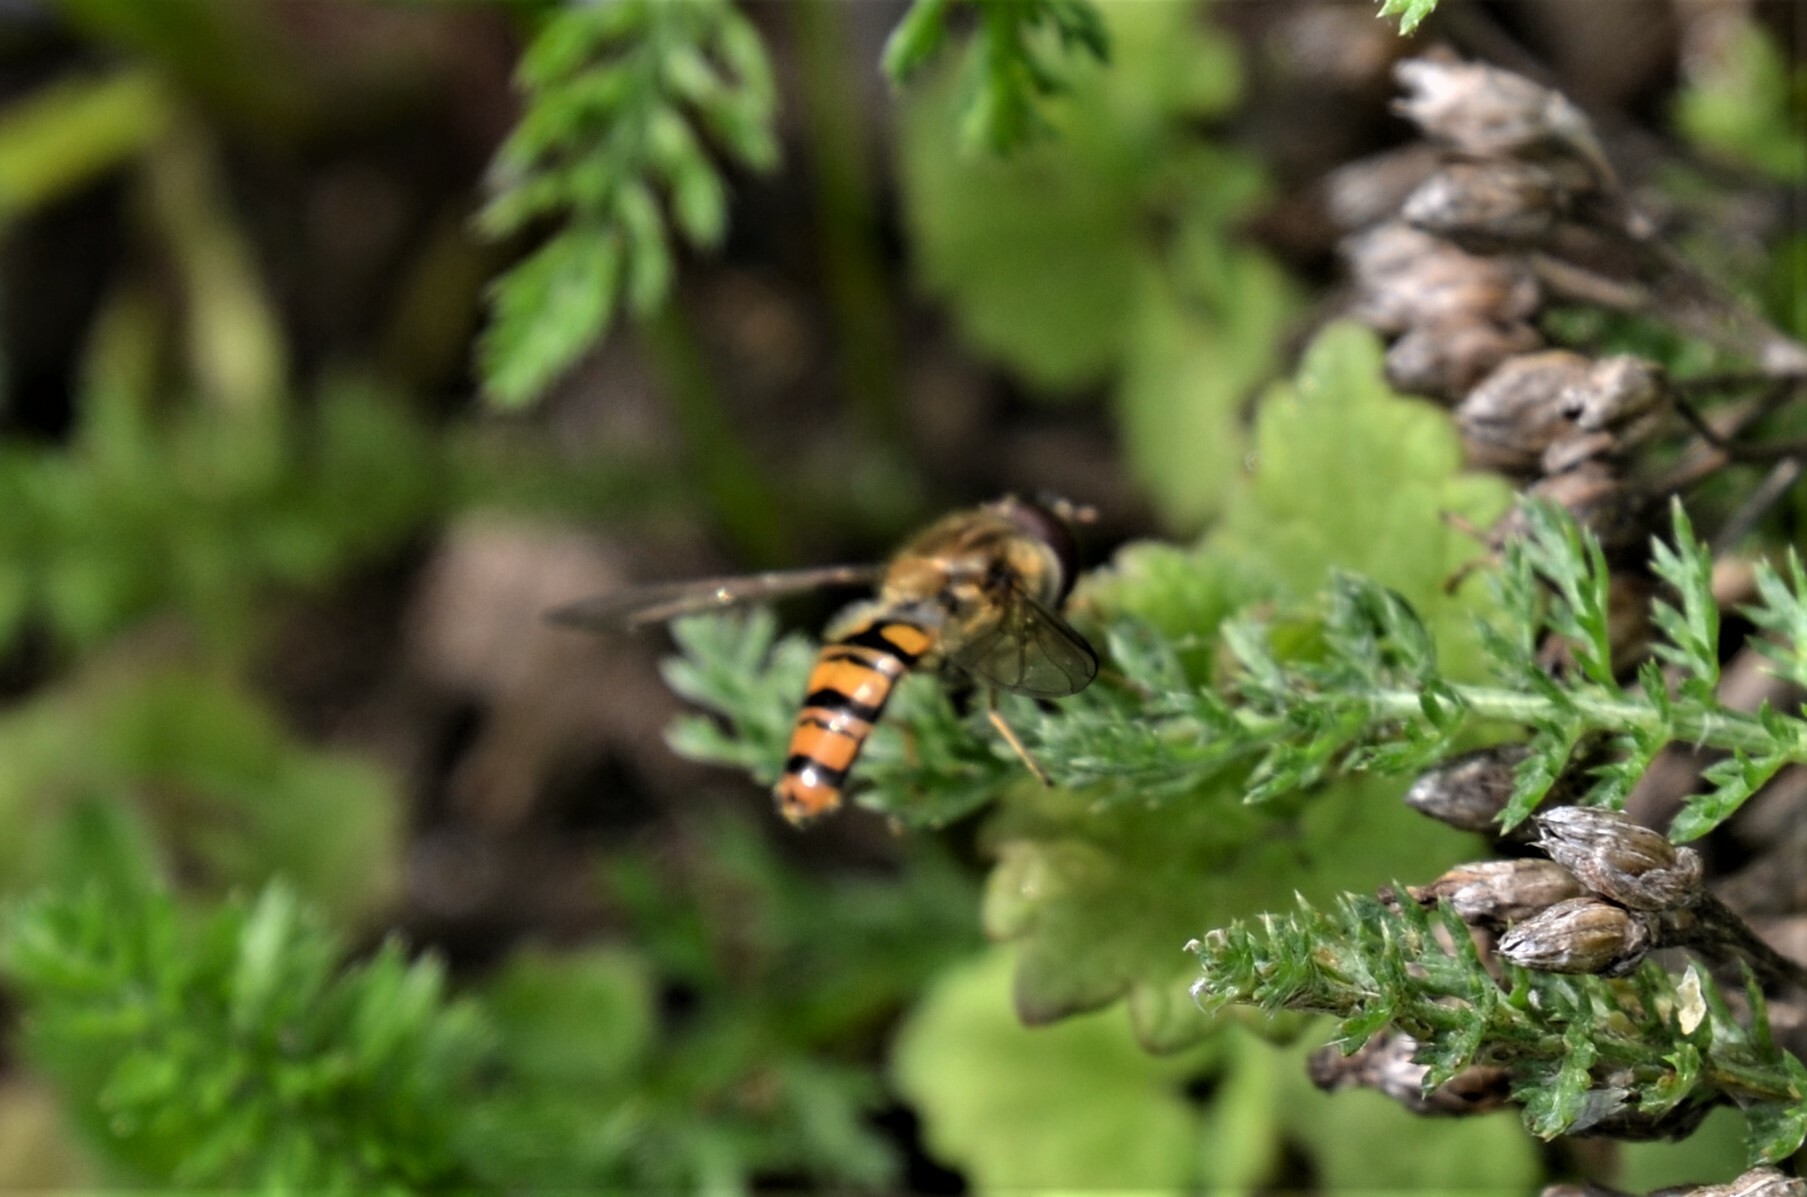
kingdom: Animalia
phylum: Arthropoda
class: Insecta
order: Diptera
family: Syrphidae
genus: Episyrphus
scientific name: Episyrphus balteatus
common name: Marmalade hoverfly
